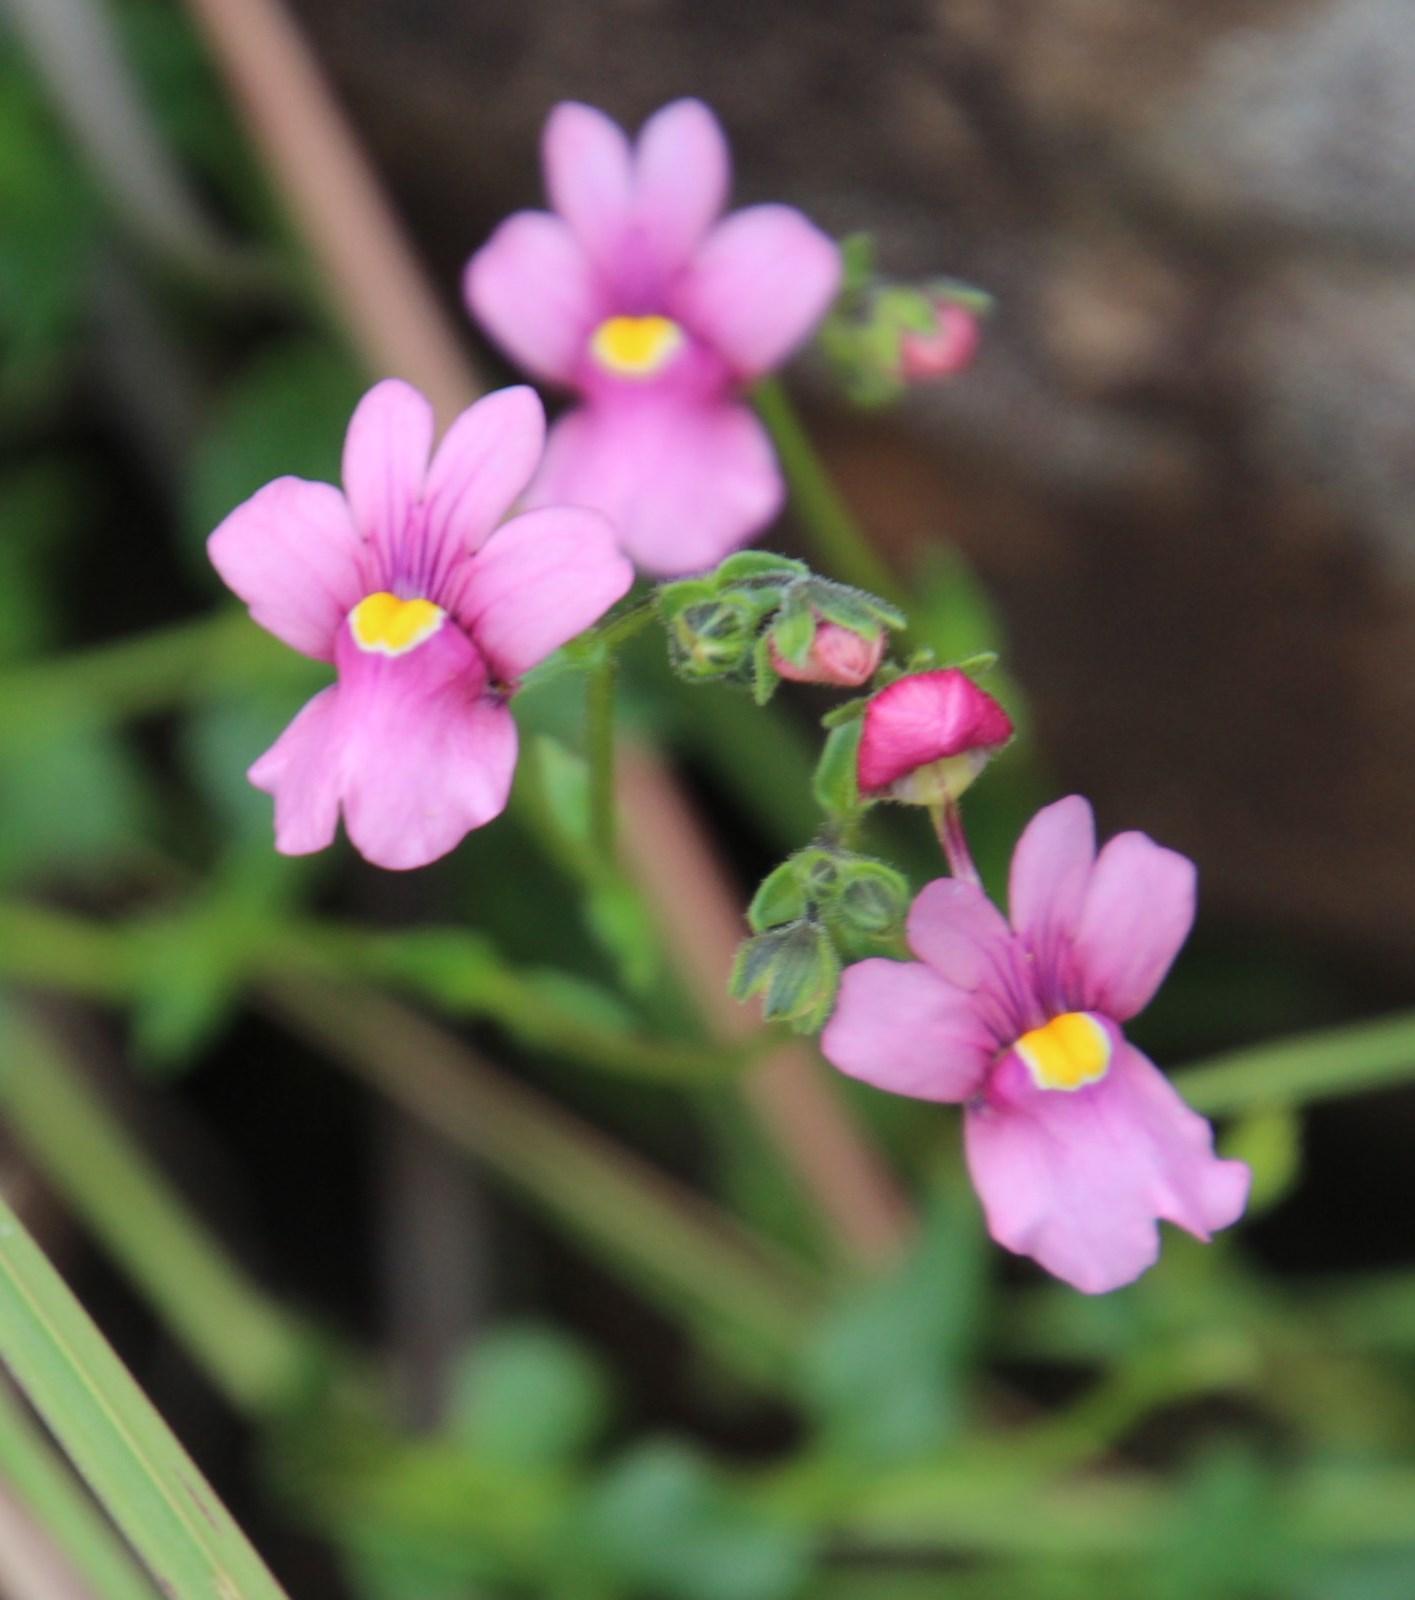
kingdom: Plantae
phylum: Tracheophyta
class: Magnoliopsida
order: Lamiales
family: Scrophulariaceae
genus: Nemesia
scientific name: Nemesia fruticans
